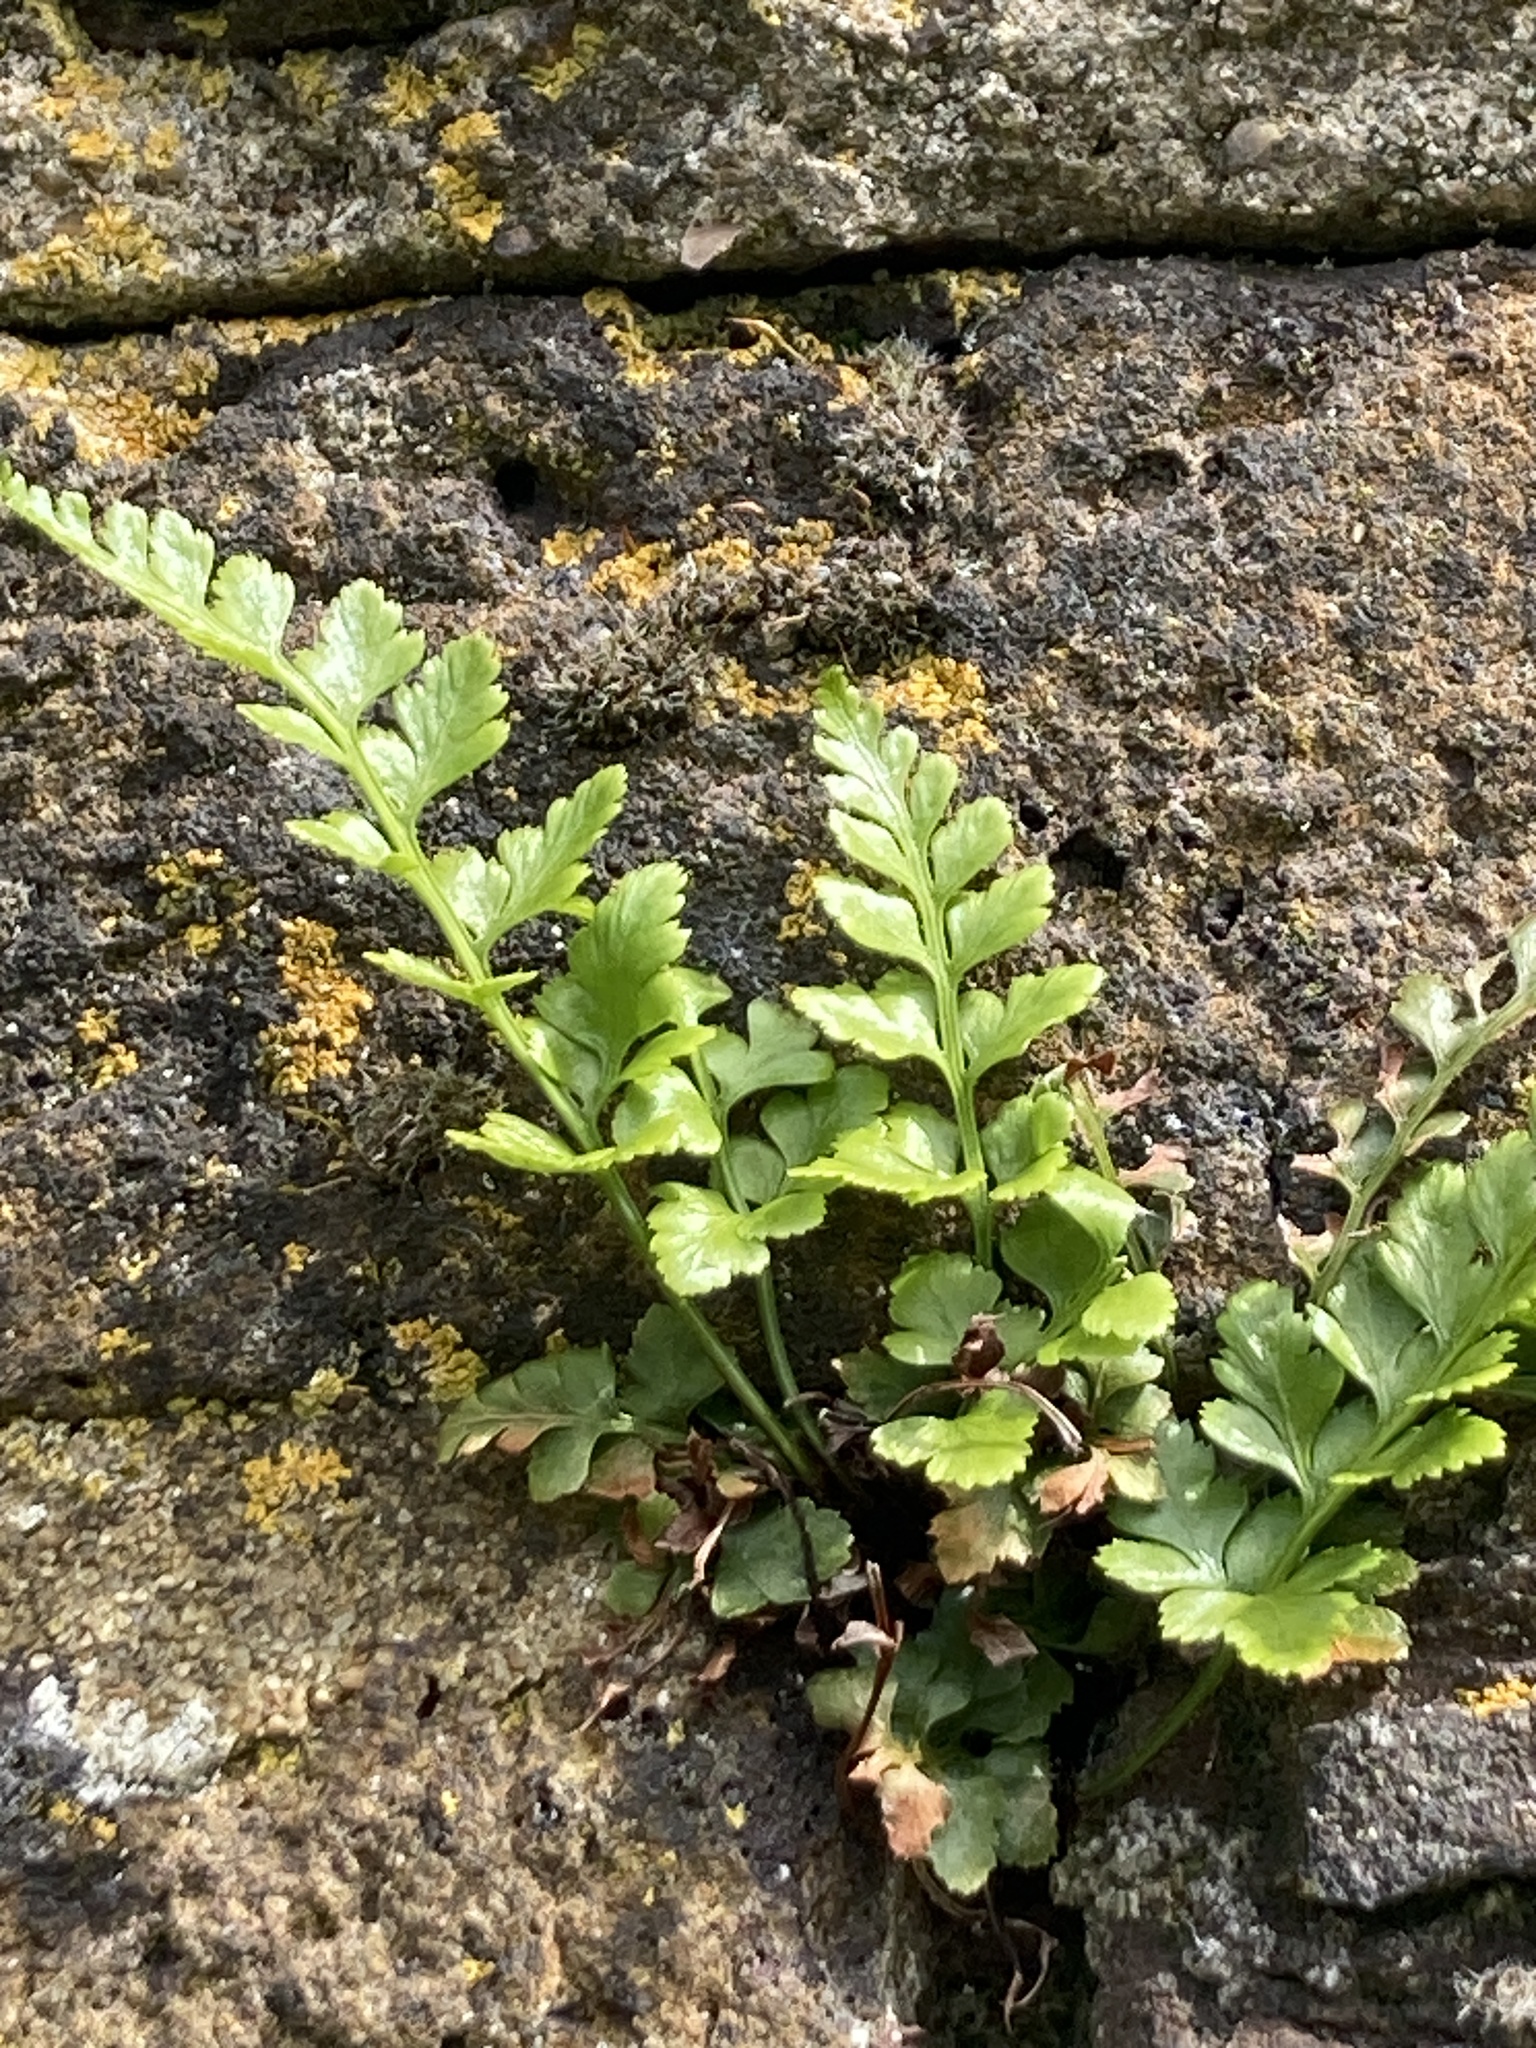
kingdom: Plantae
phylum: Tracheophyta
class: Polypodiopsida
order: Polypodiales
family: Aspleniaceae
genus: Asplenium
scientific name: Asplenium adiantum-nigrum
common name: Black spleenwort
